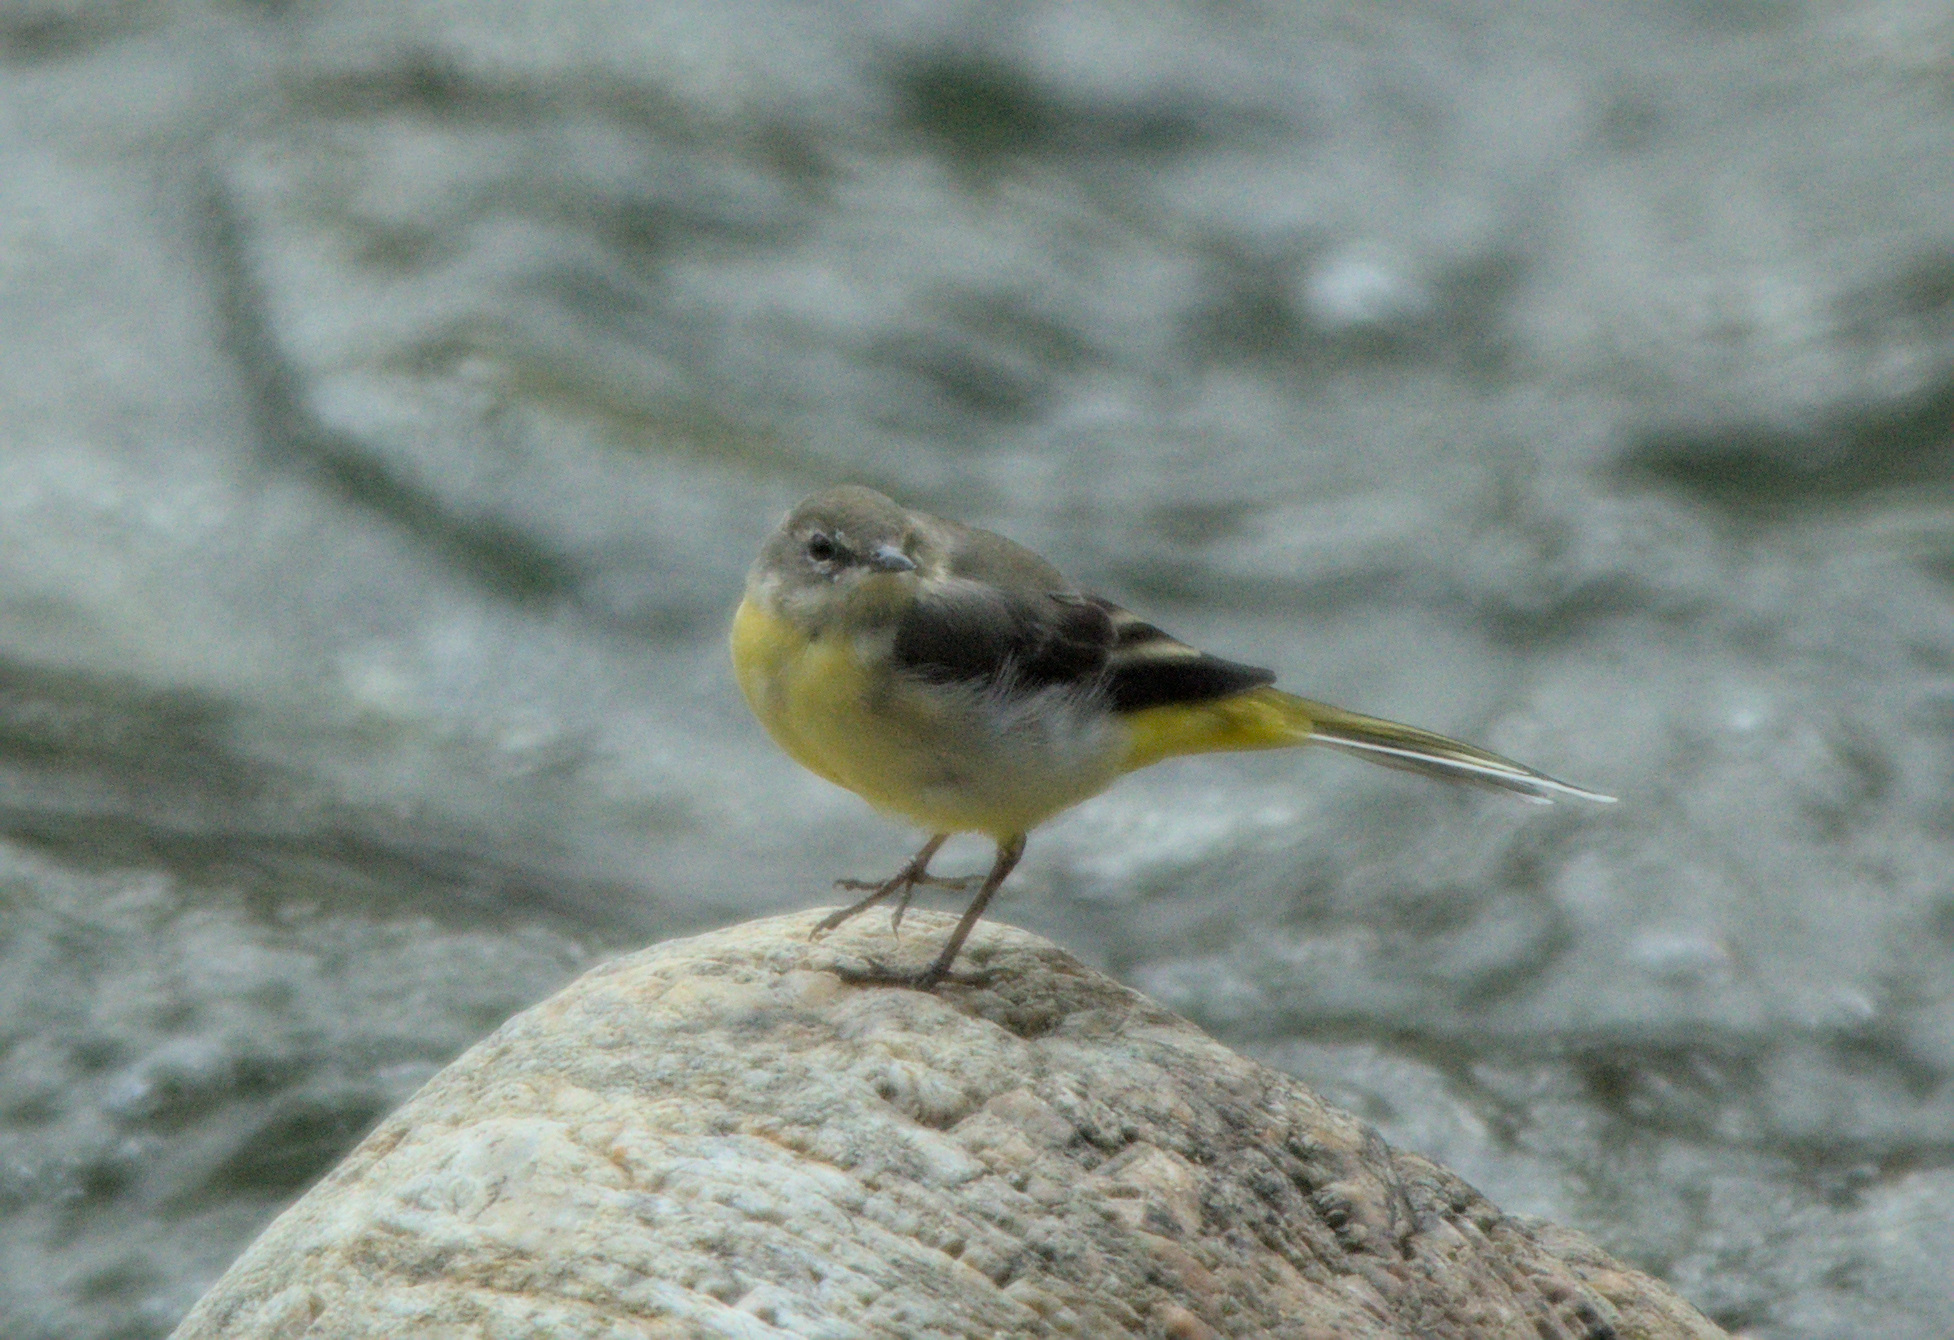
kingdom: Animalia
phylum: Chordata
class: Aves
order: Passeriformes
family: Motacillidae
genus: Motacilla
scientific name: Motacilla cinerea
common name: Grey wagtail
